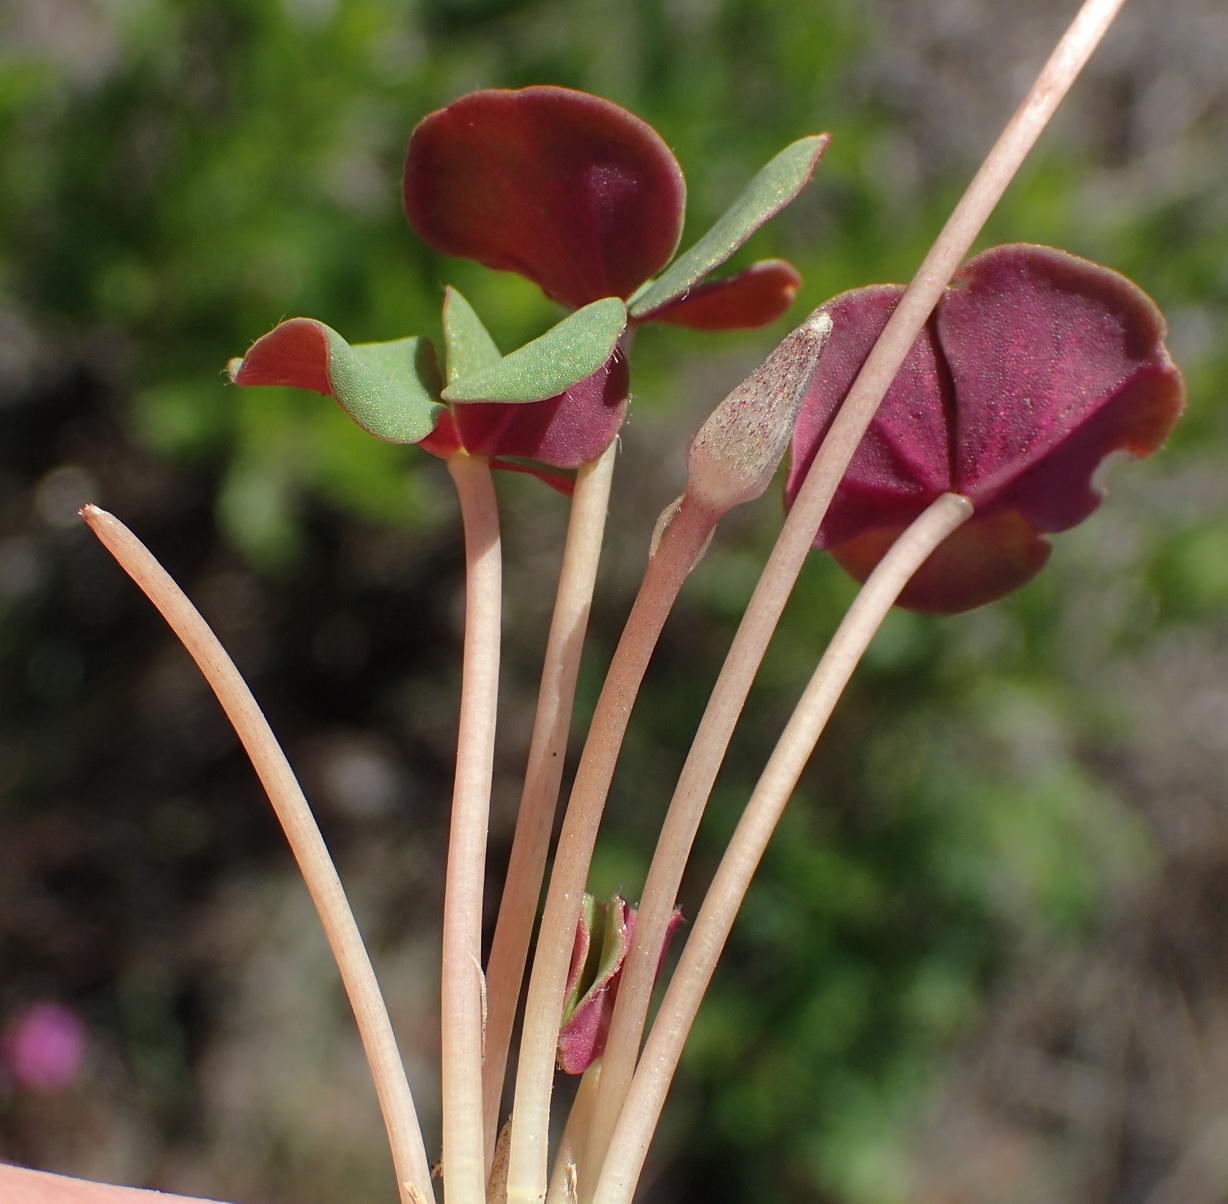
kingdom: Plantae
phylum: Tracheophyta
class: Magnoliopsida
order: Oxalidales
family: Oxalidaceae
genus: Oxalis
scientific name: Oxalis depressa
